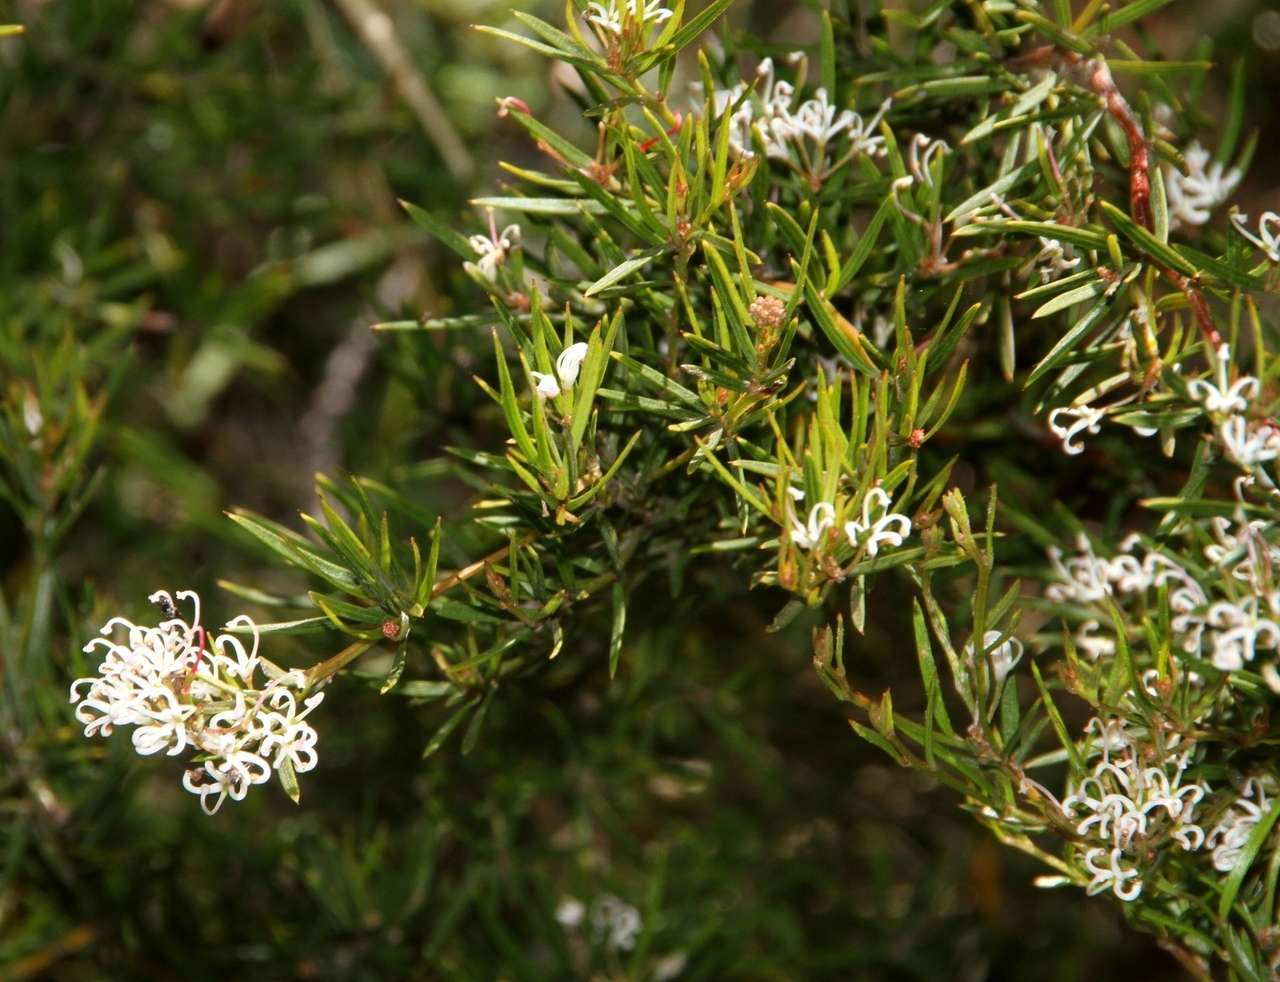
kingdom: Plantae
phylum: Tracheophyta
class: Magnoliopsida
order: Proteales
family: Proteaceae
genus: Grevillea
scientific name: Grevillea alpivaga
